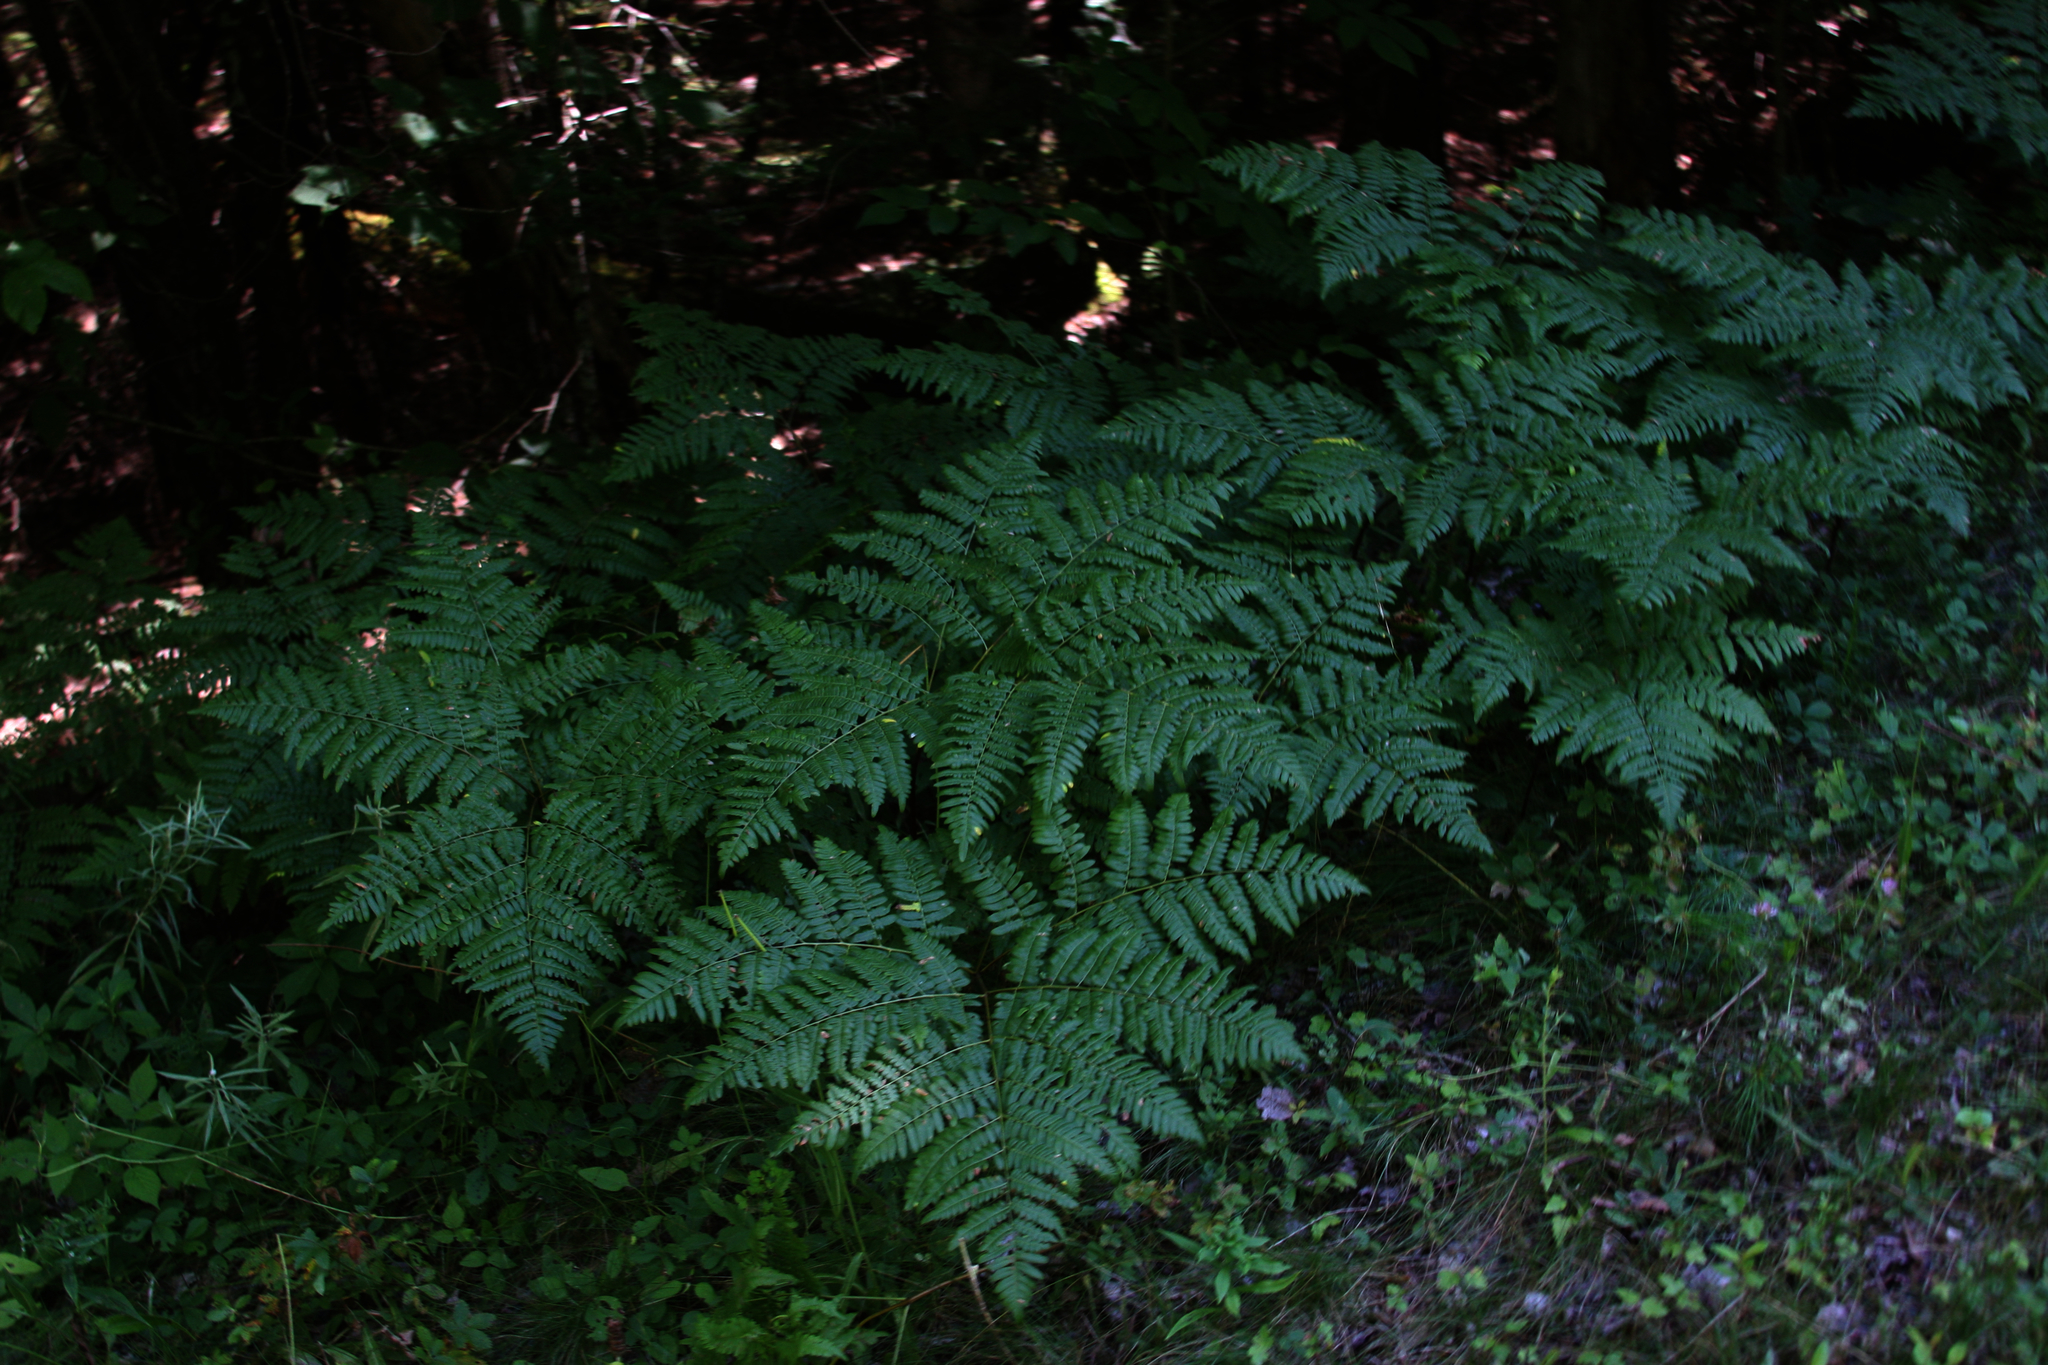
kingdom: Plantae
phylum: Tracheophyta
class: Polypodiopsida
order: Polypodiales
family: Dennstaedtiaceae
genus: Pteridium
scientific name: Pteridium aquilinum
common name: Bracken
